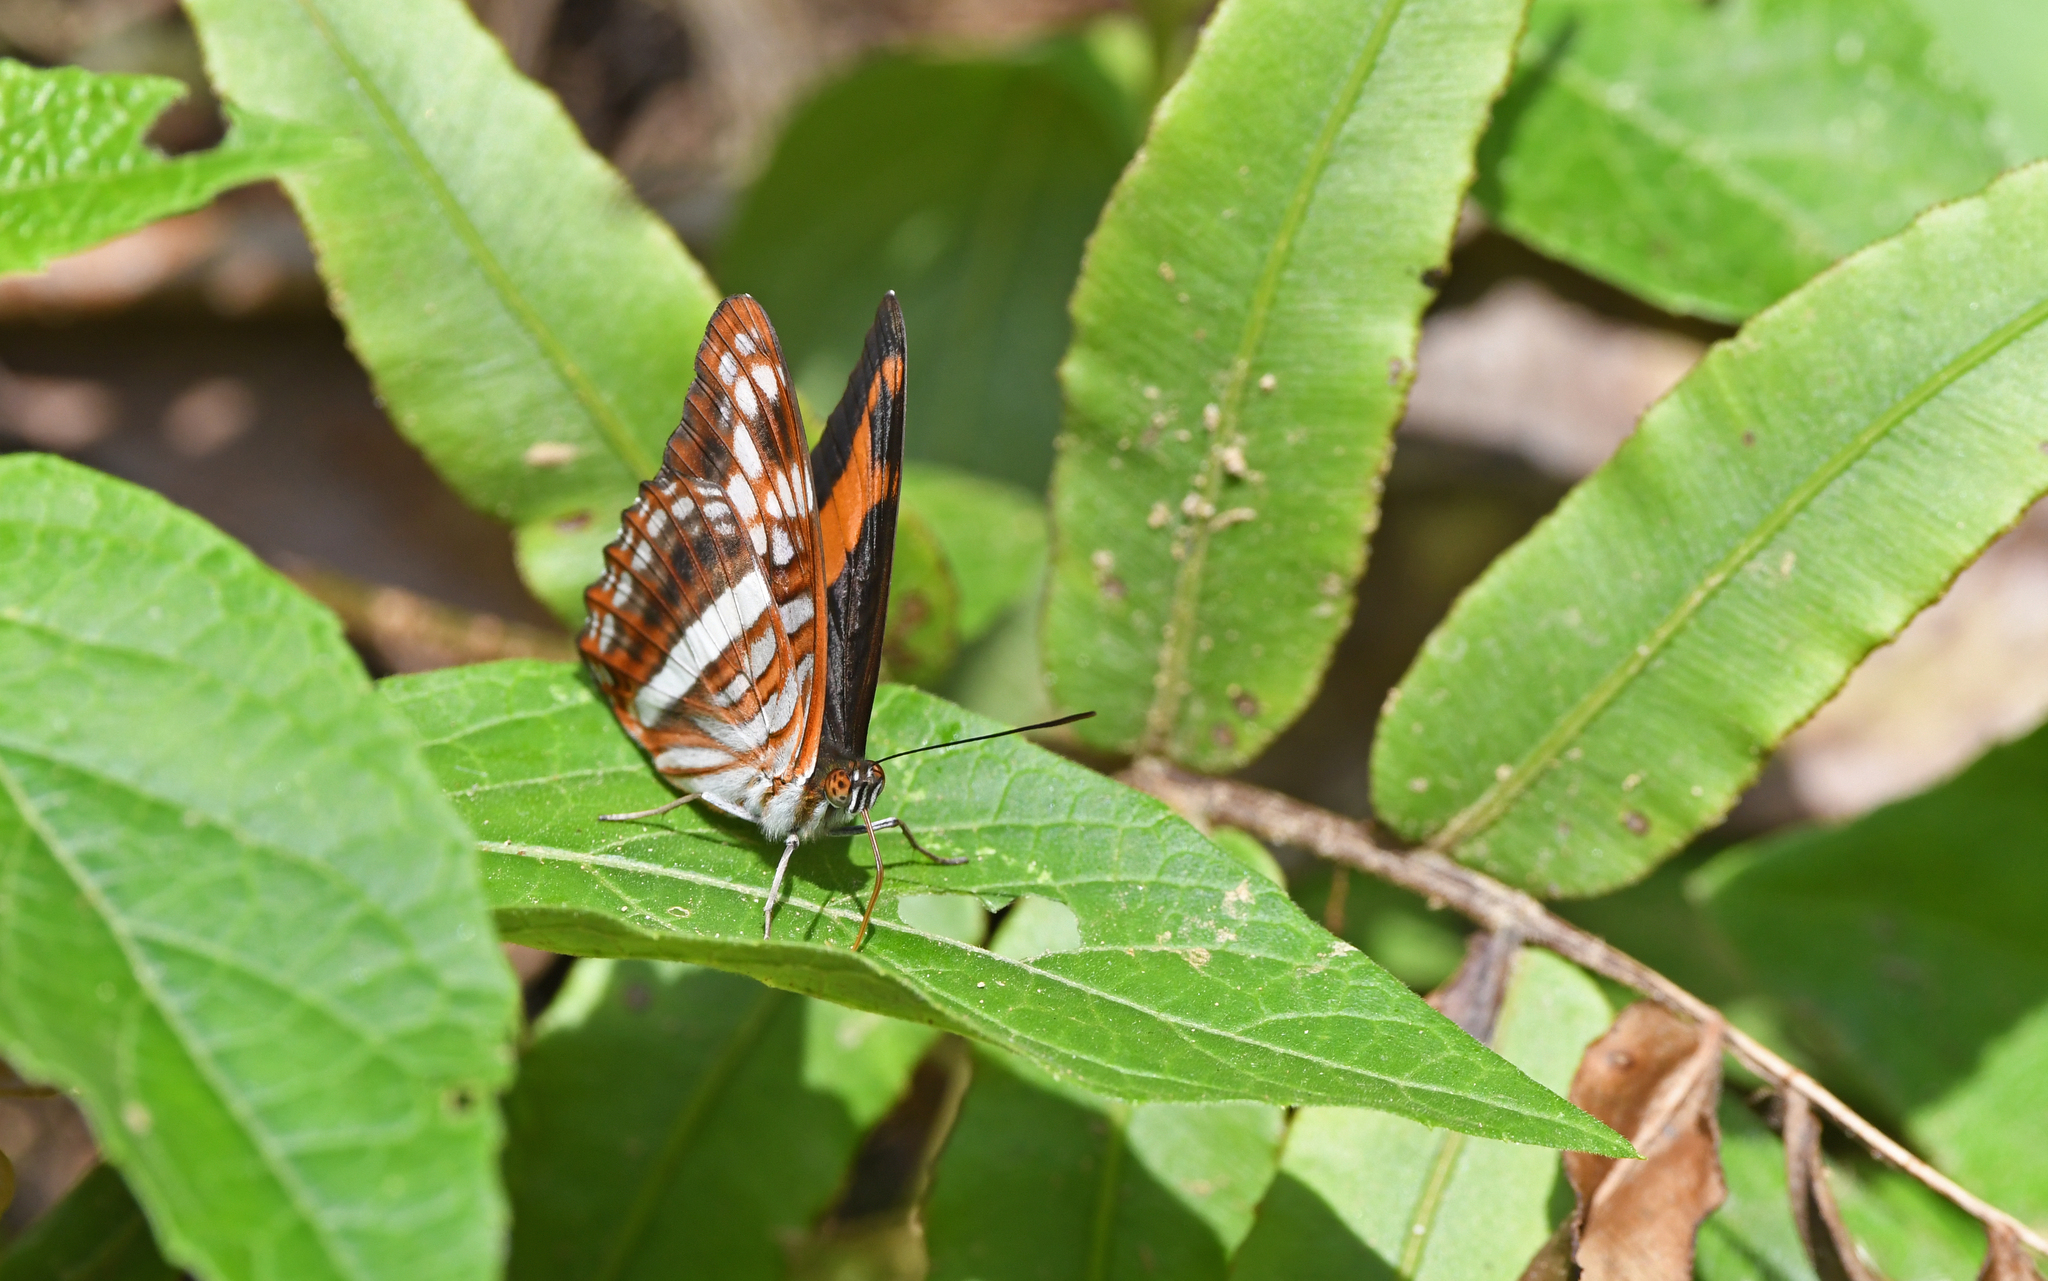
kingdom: Animalia
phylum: Arthropoda
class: Insecta
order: Lepidoptera
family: Nymphalidae
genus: Limenitis
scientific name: Limenitis sichaeus
